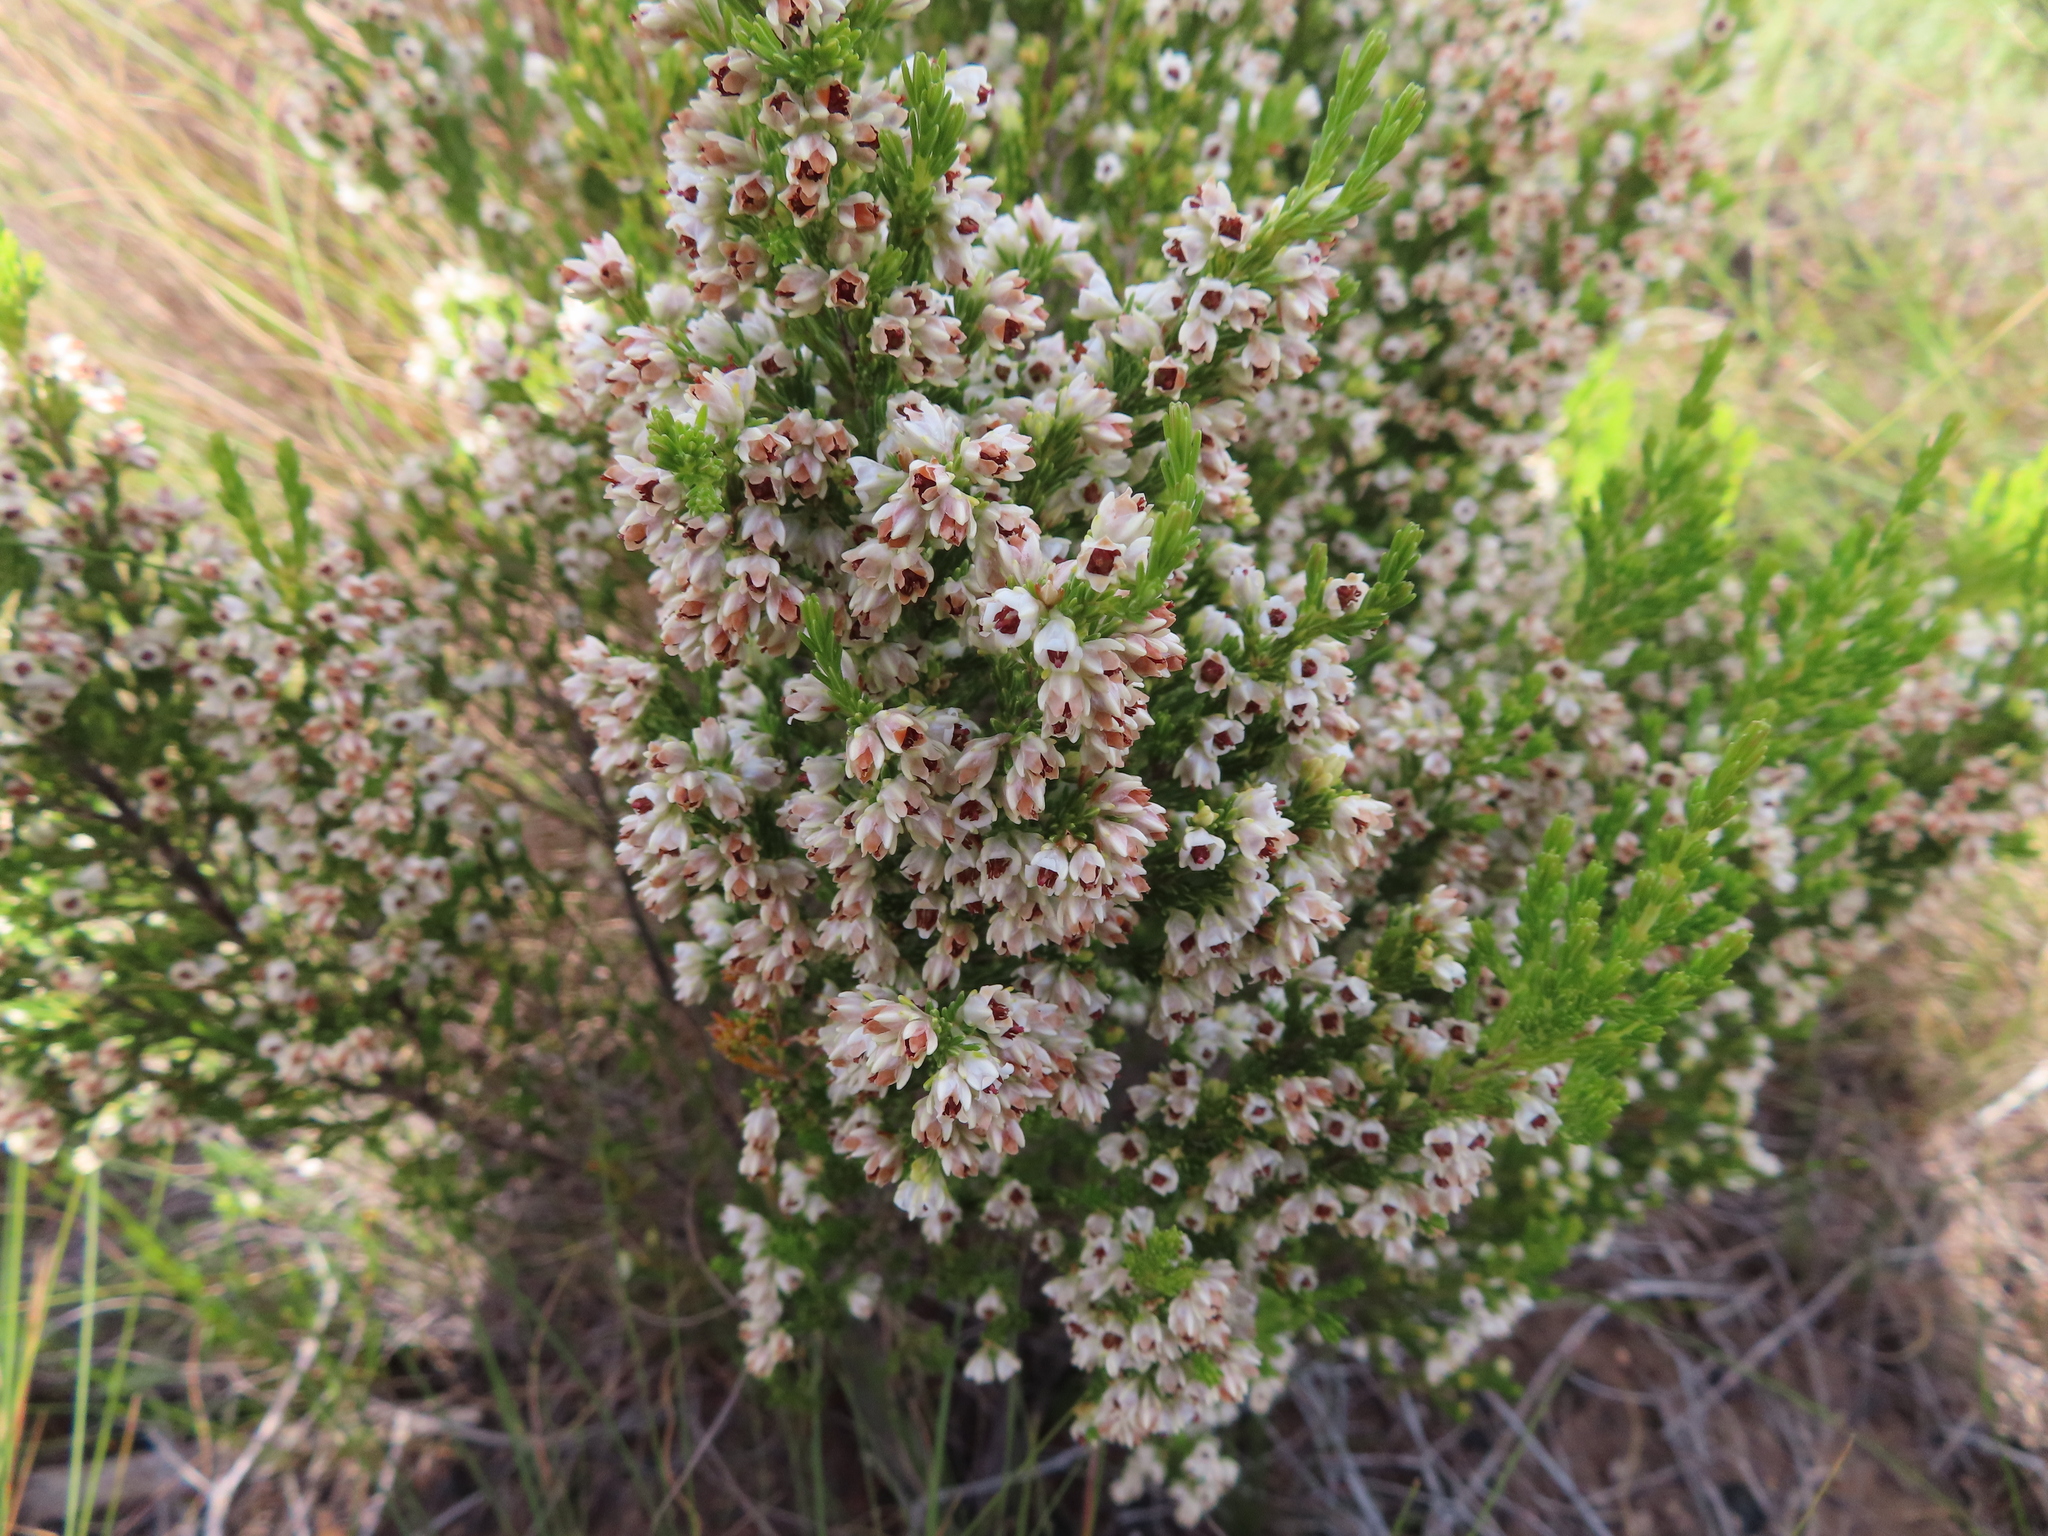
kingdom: Plantae
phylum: Tracheophyta
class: Magnoliopsida
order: Ericales
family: Ericaceae
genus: Erica
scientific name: Erica calycina
